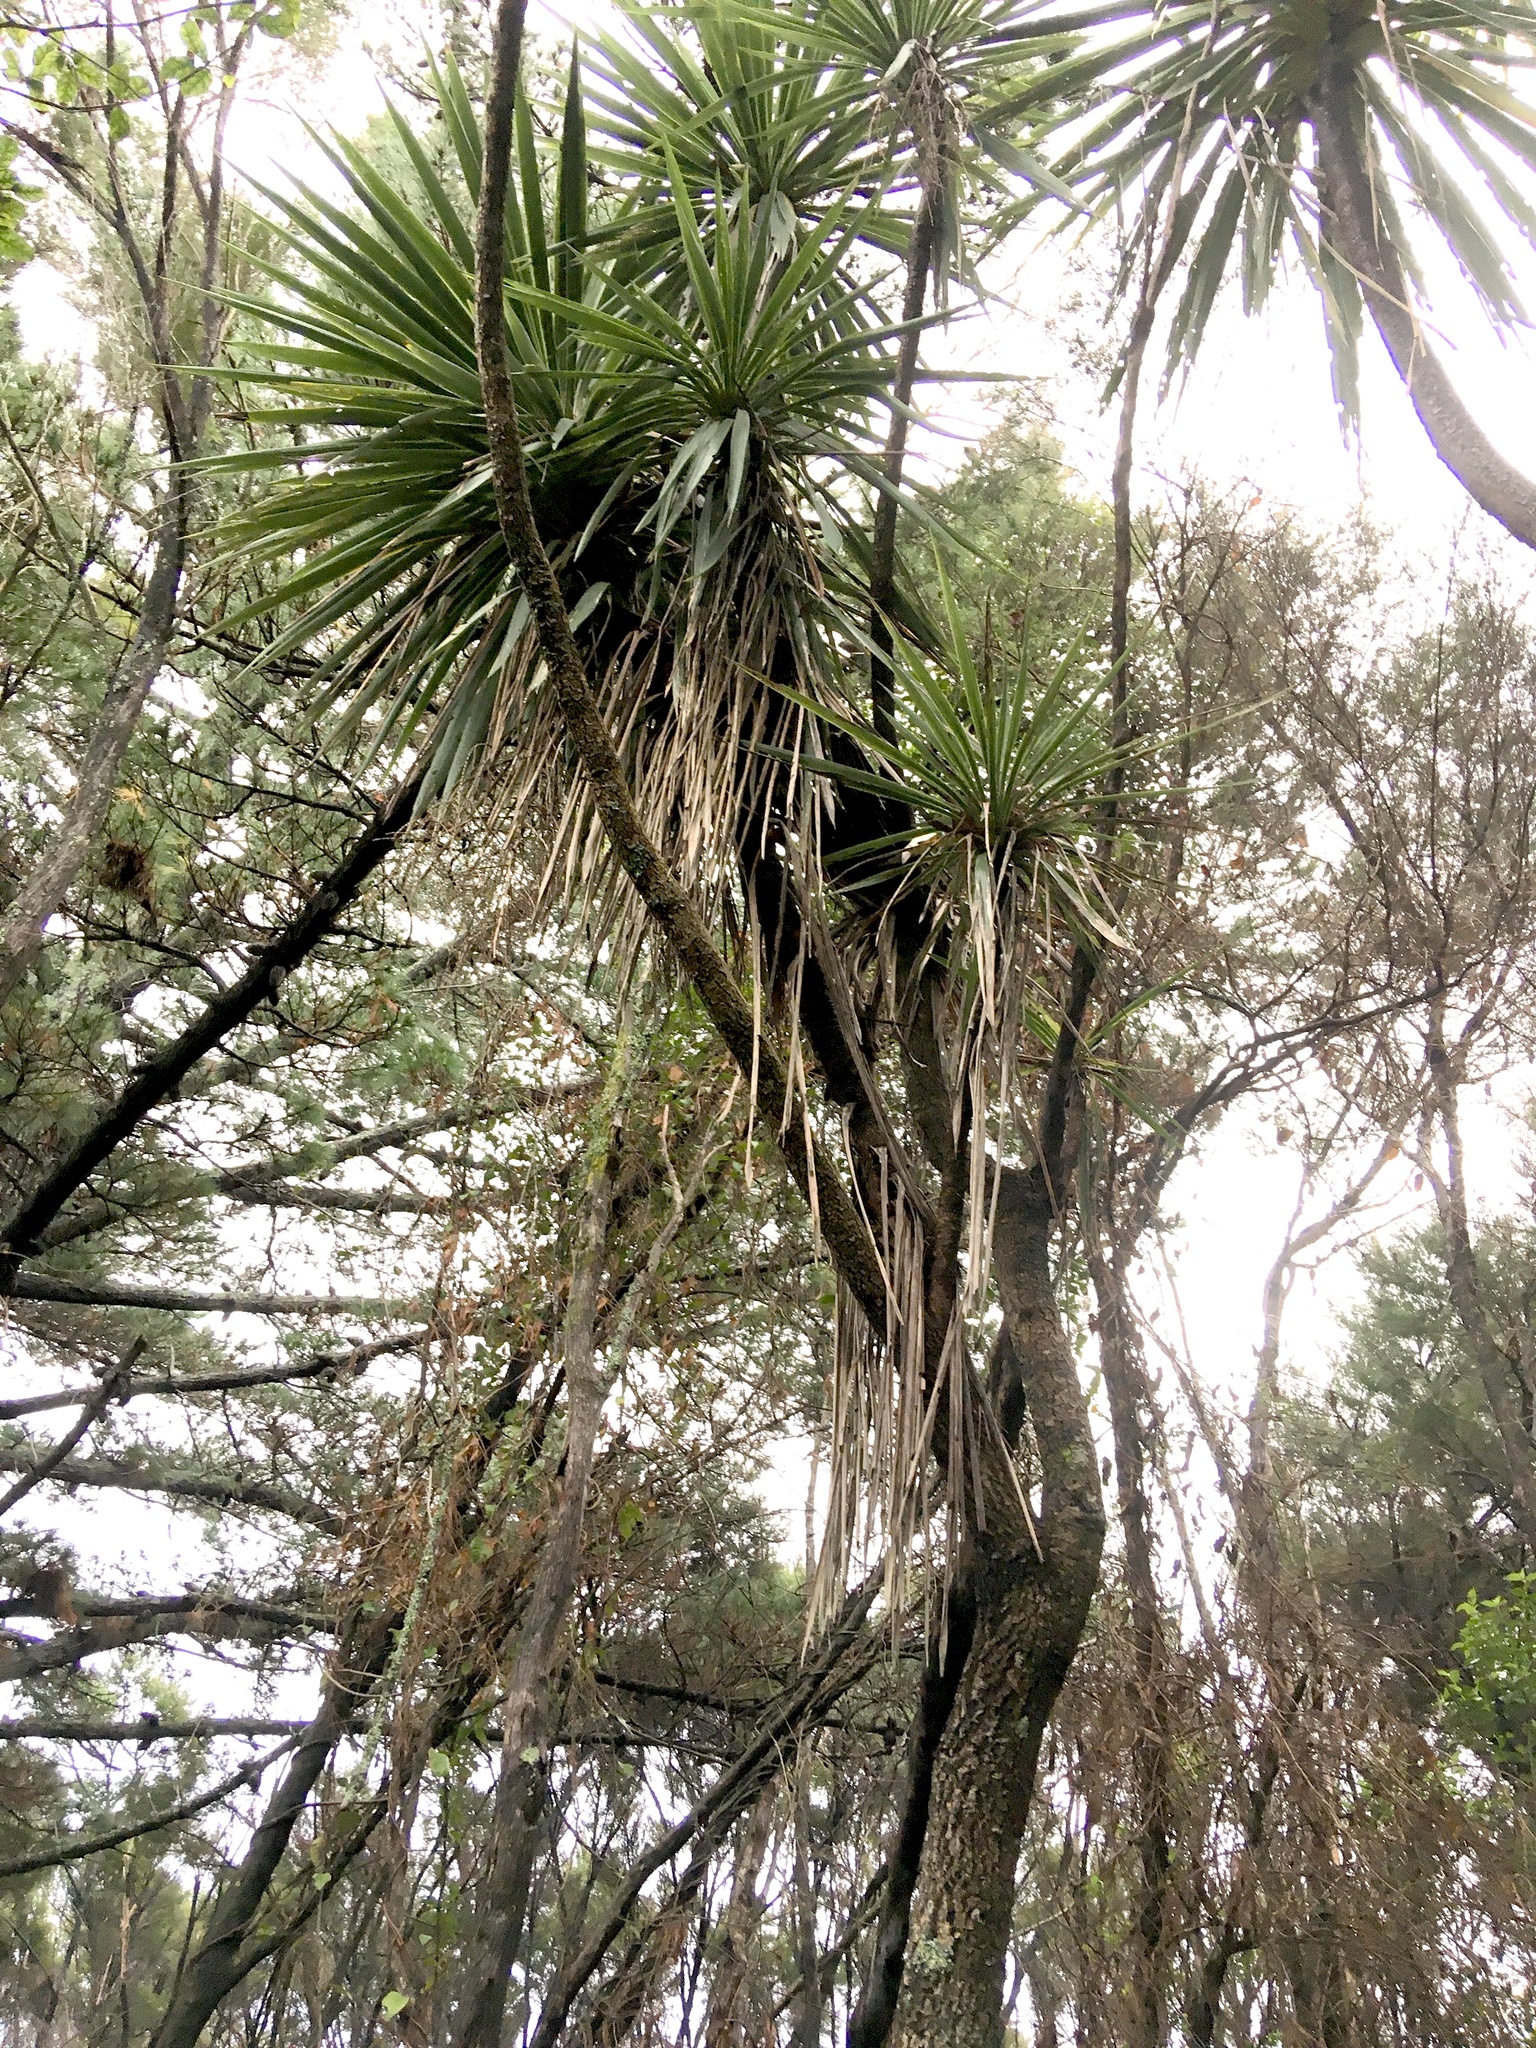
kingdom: Plantae
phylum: Tracheophyta
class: Liliopsida
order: Asparagales
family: Asparagaceae
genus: Cordyline
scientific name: Cordyline australis
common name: Cabbage-palm
